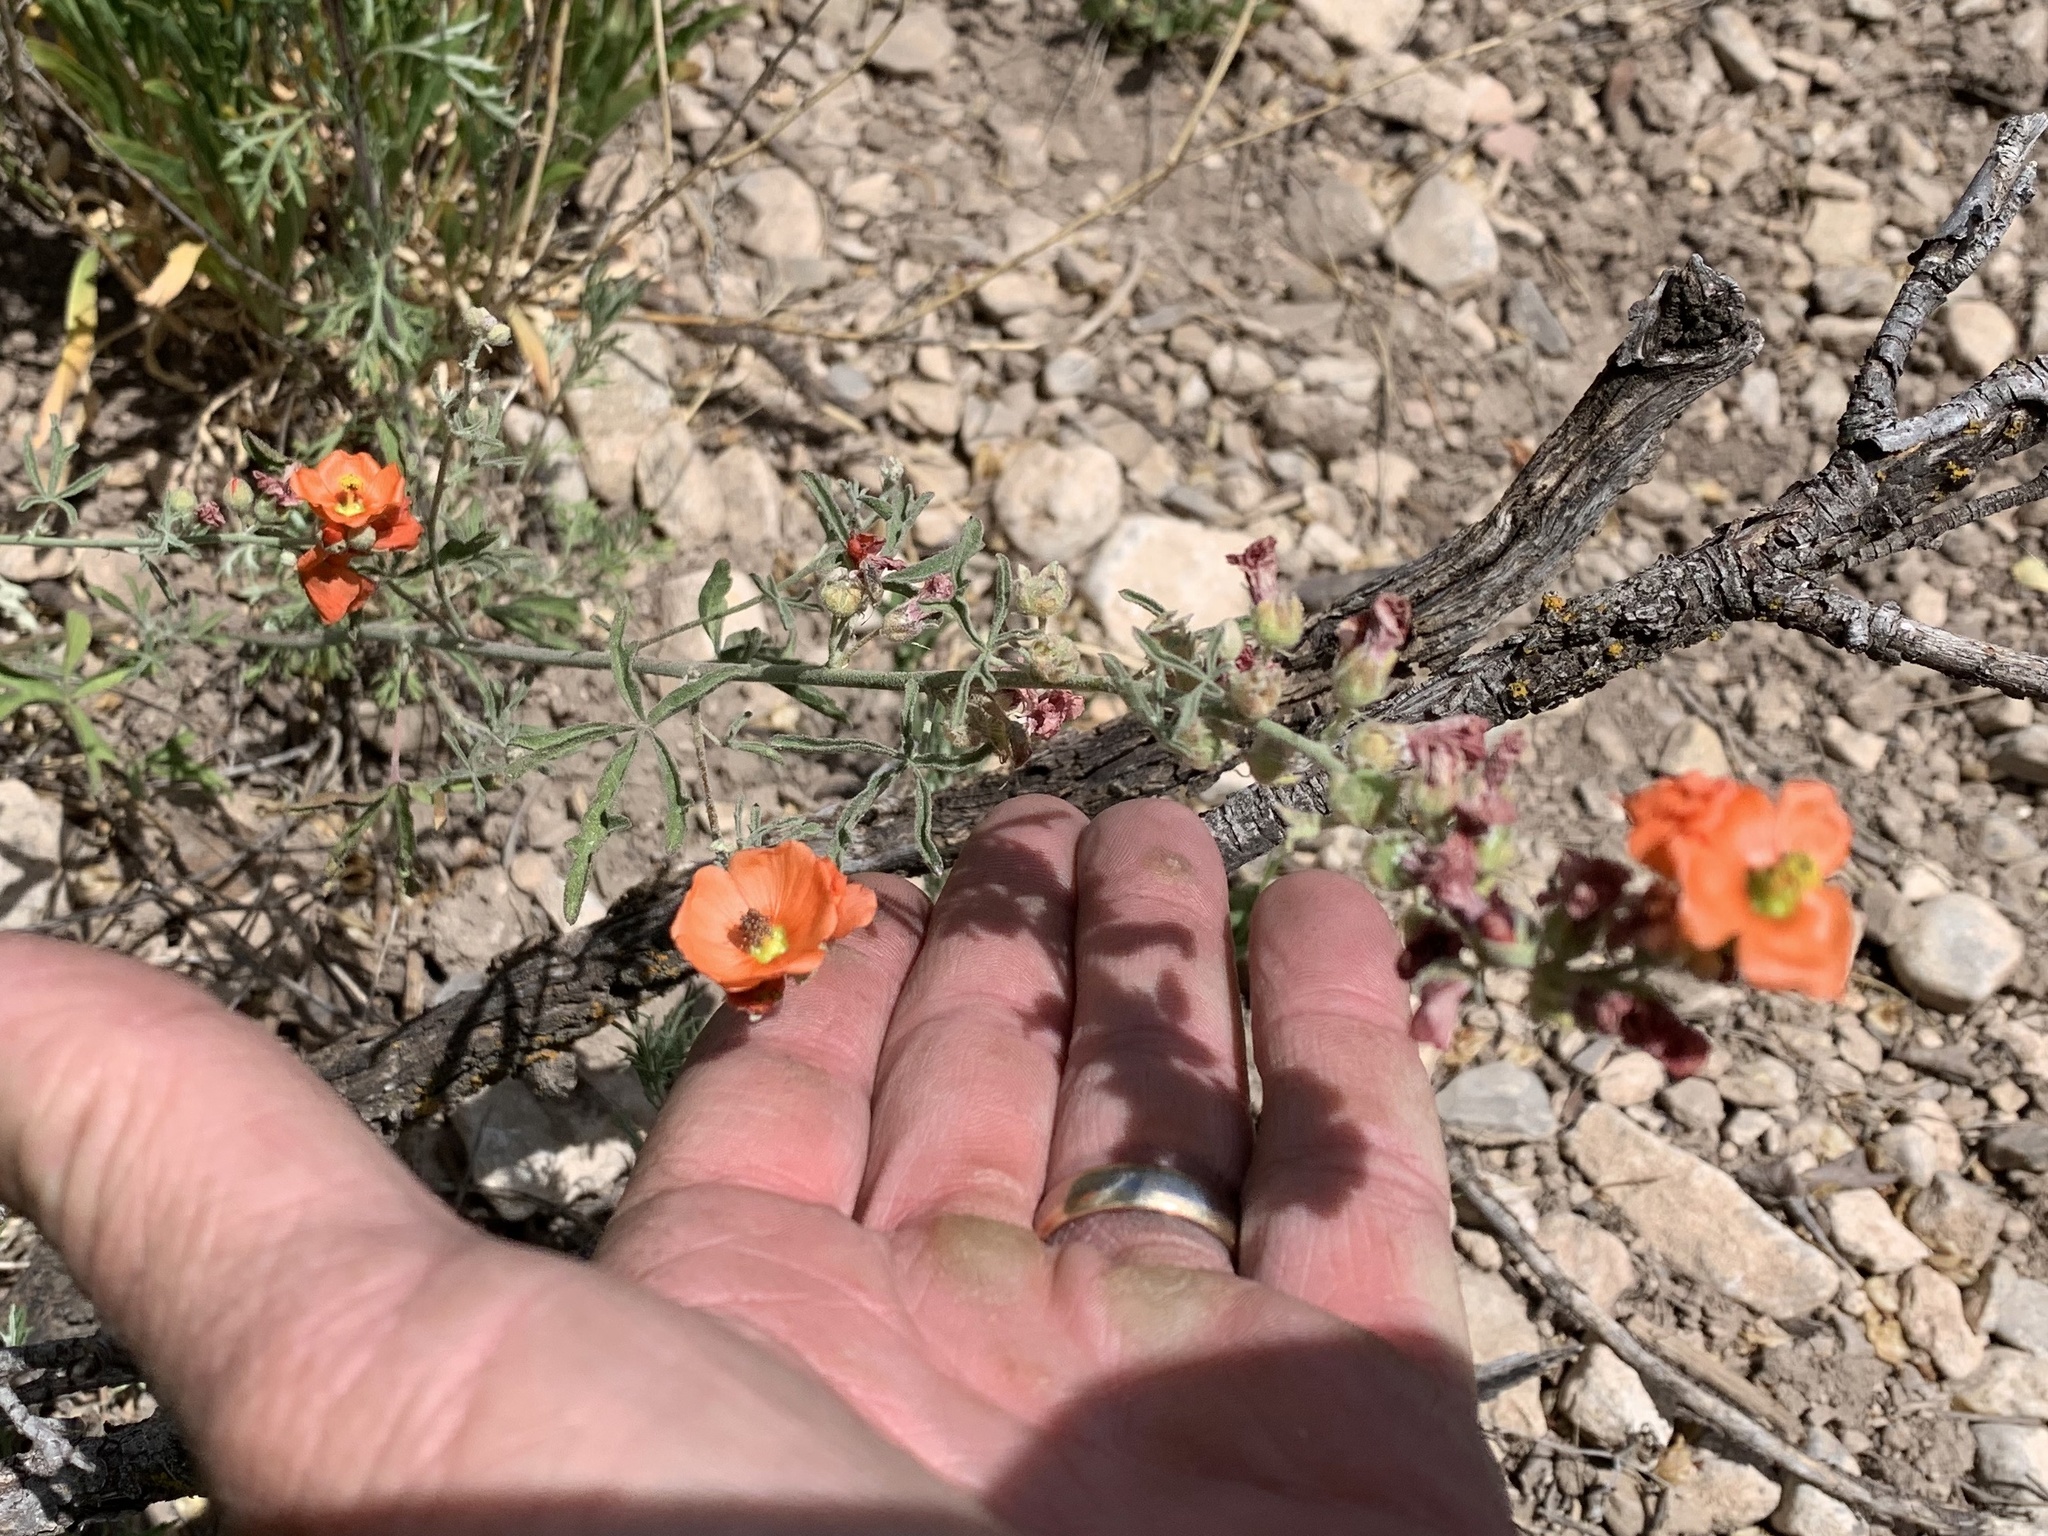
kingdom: Plantae
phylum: Tracheophyta
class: Magnoliopsida
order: Malvales
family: Malvaceae
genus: Sphaeralcea
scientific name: Sphaeralcea digitata
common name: Juniper-gobe-mallow
